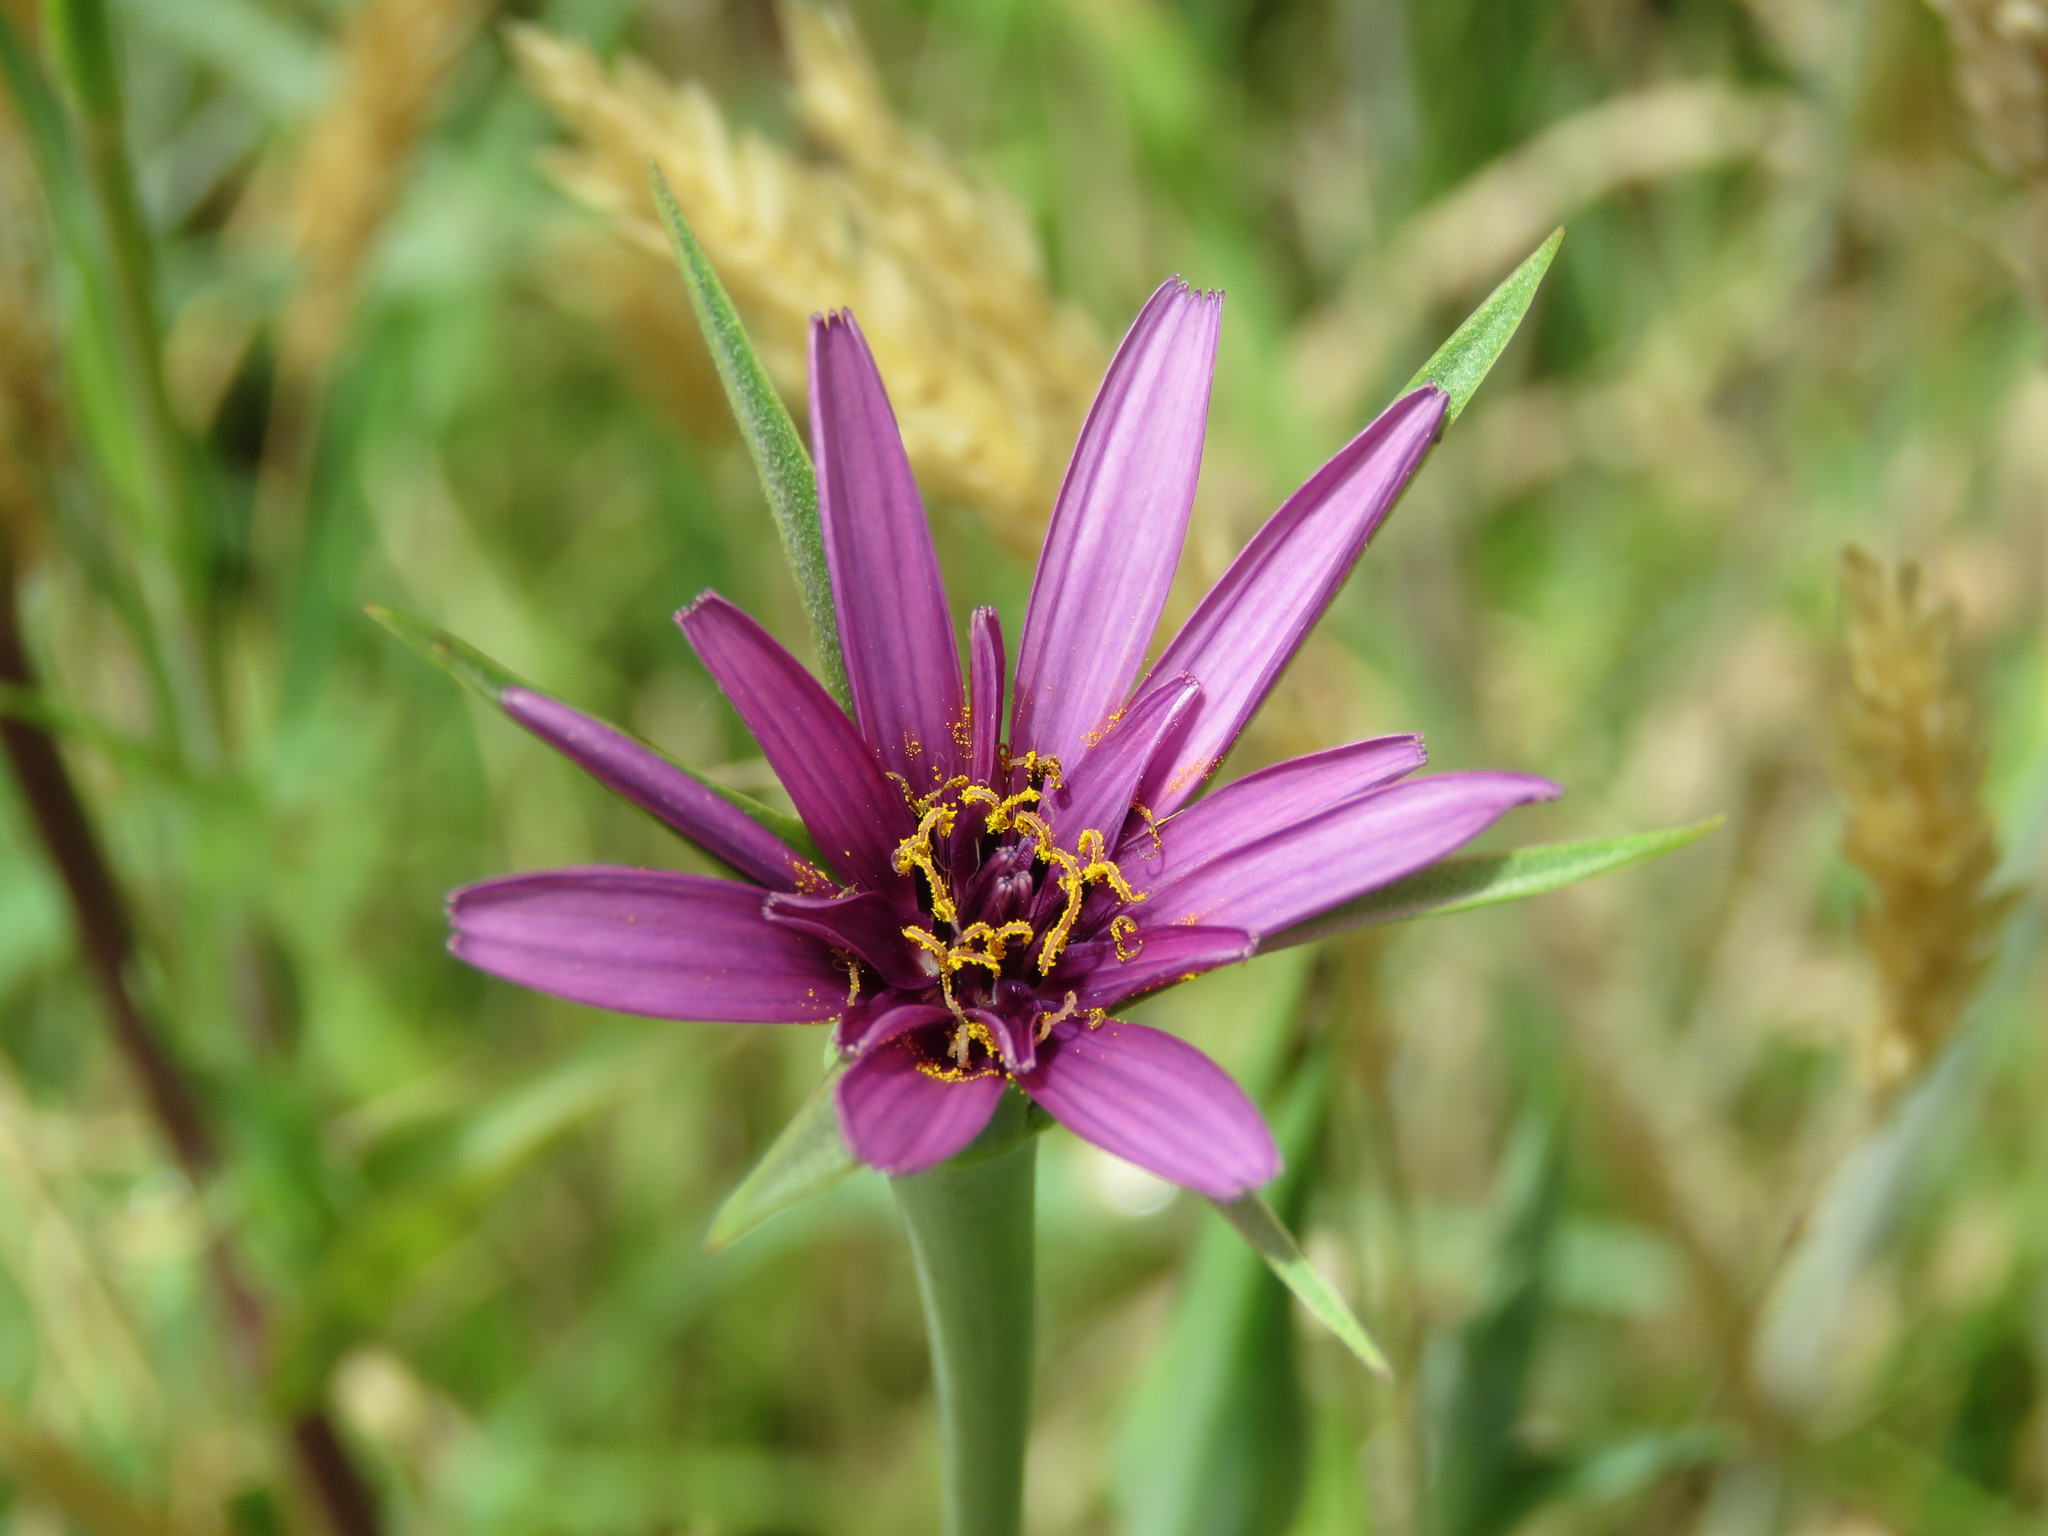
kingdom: Plantae
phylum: Tracheophyta
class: Magnoliopsida
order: Asterales
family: Asteraceae
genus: Tragopogon
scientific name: Tragopogon porrifolius
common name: Salsify
